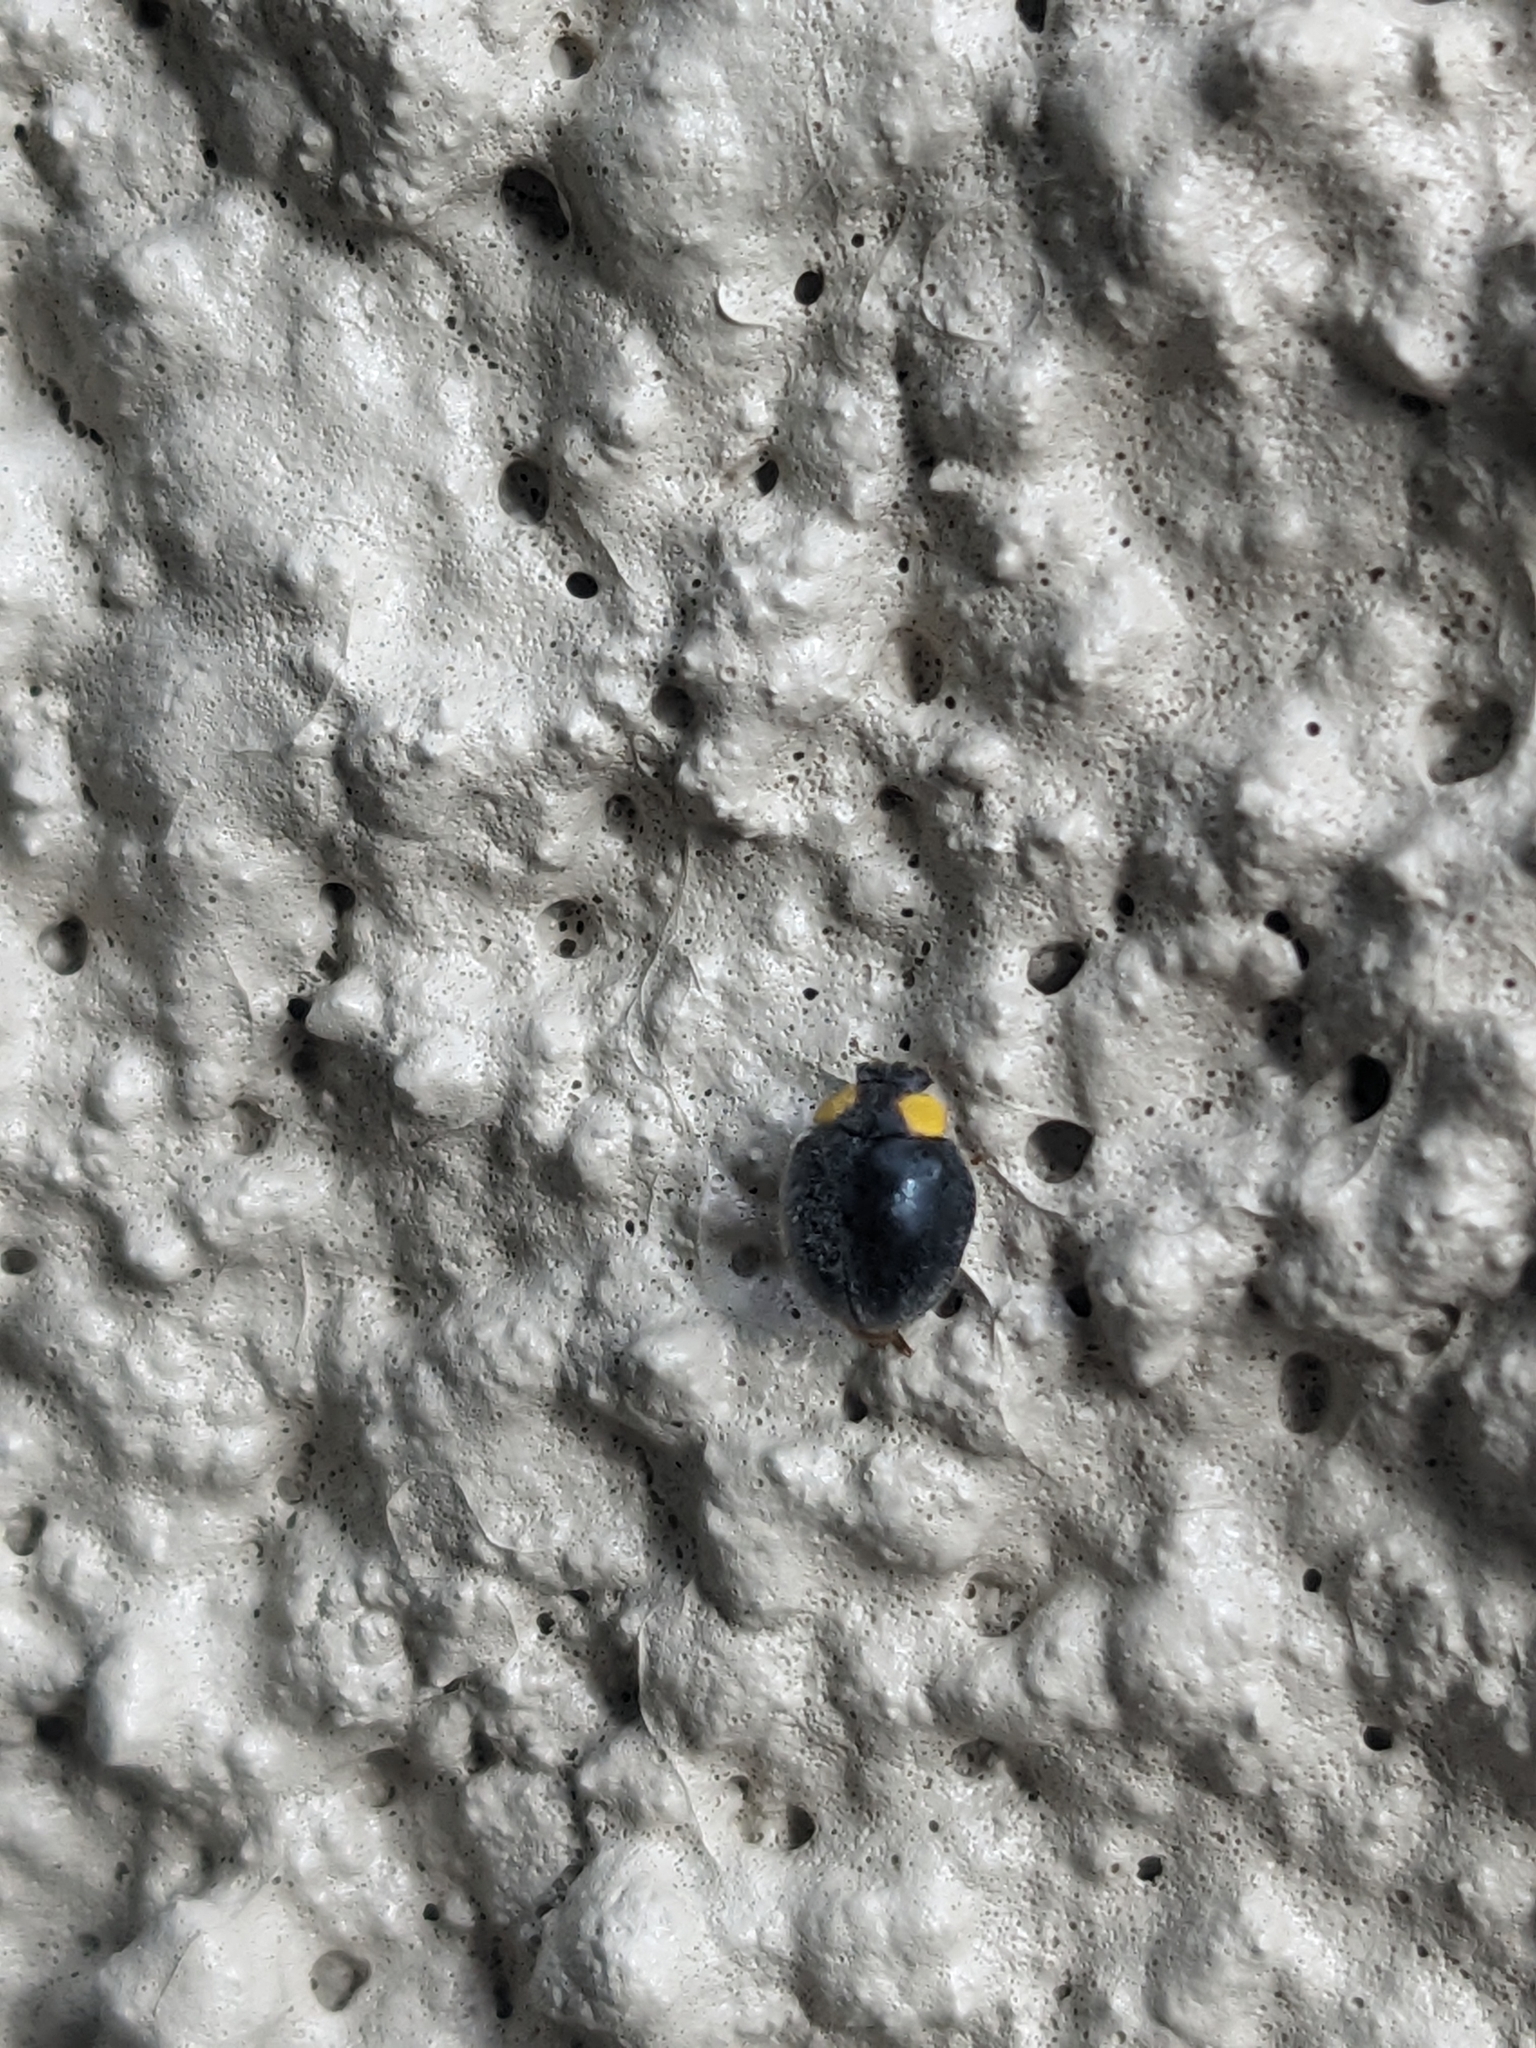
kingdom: Animalia
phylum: Arthropoda
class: Insecta
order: Coleoptera
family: Coccinellidae
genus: Scymnodes
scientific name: Scymnodes lividigaster
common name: Yellowshouldered lady beetle
